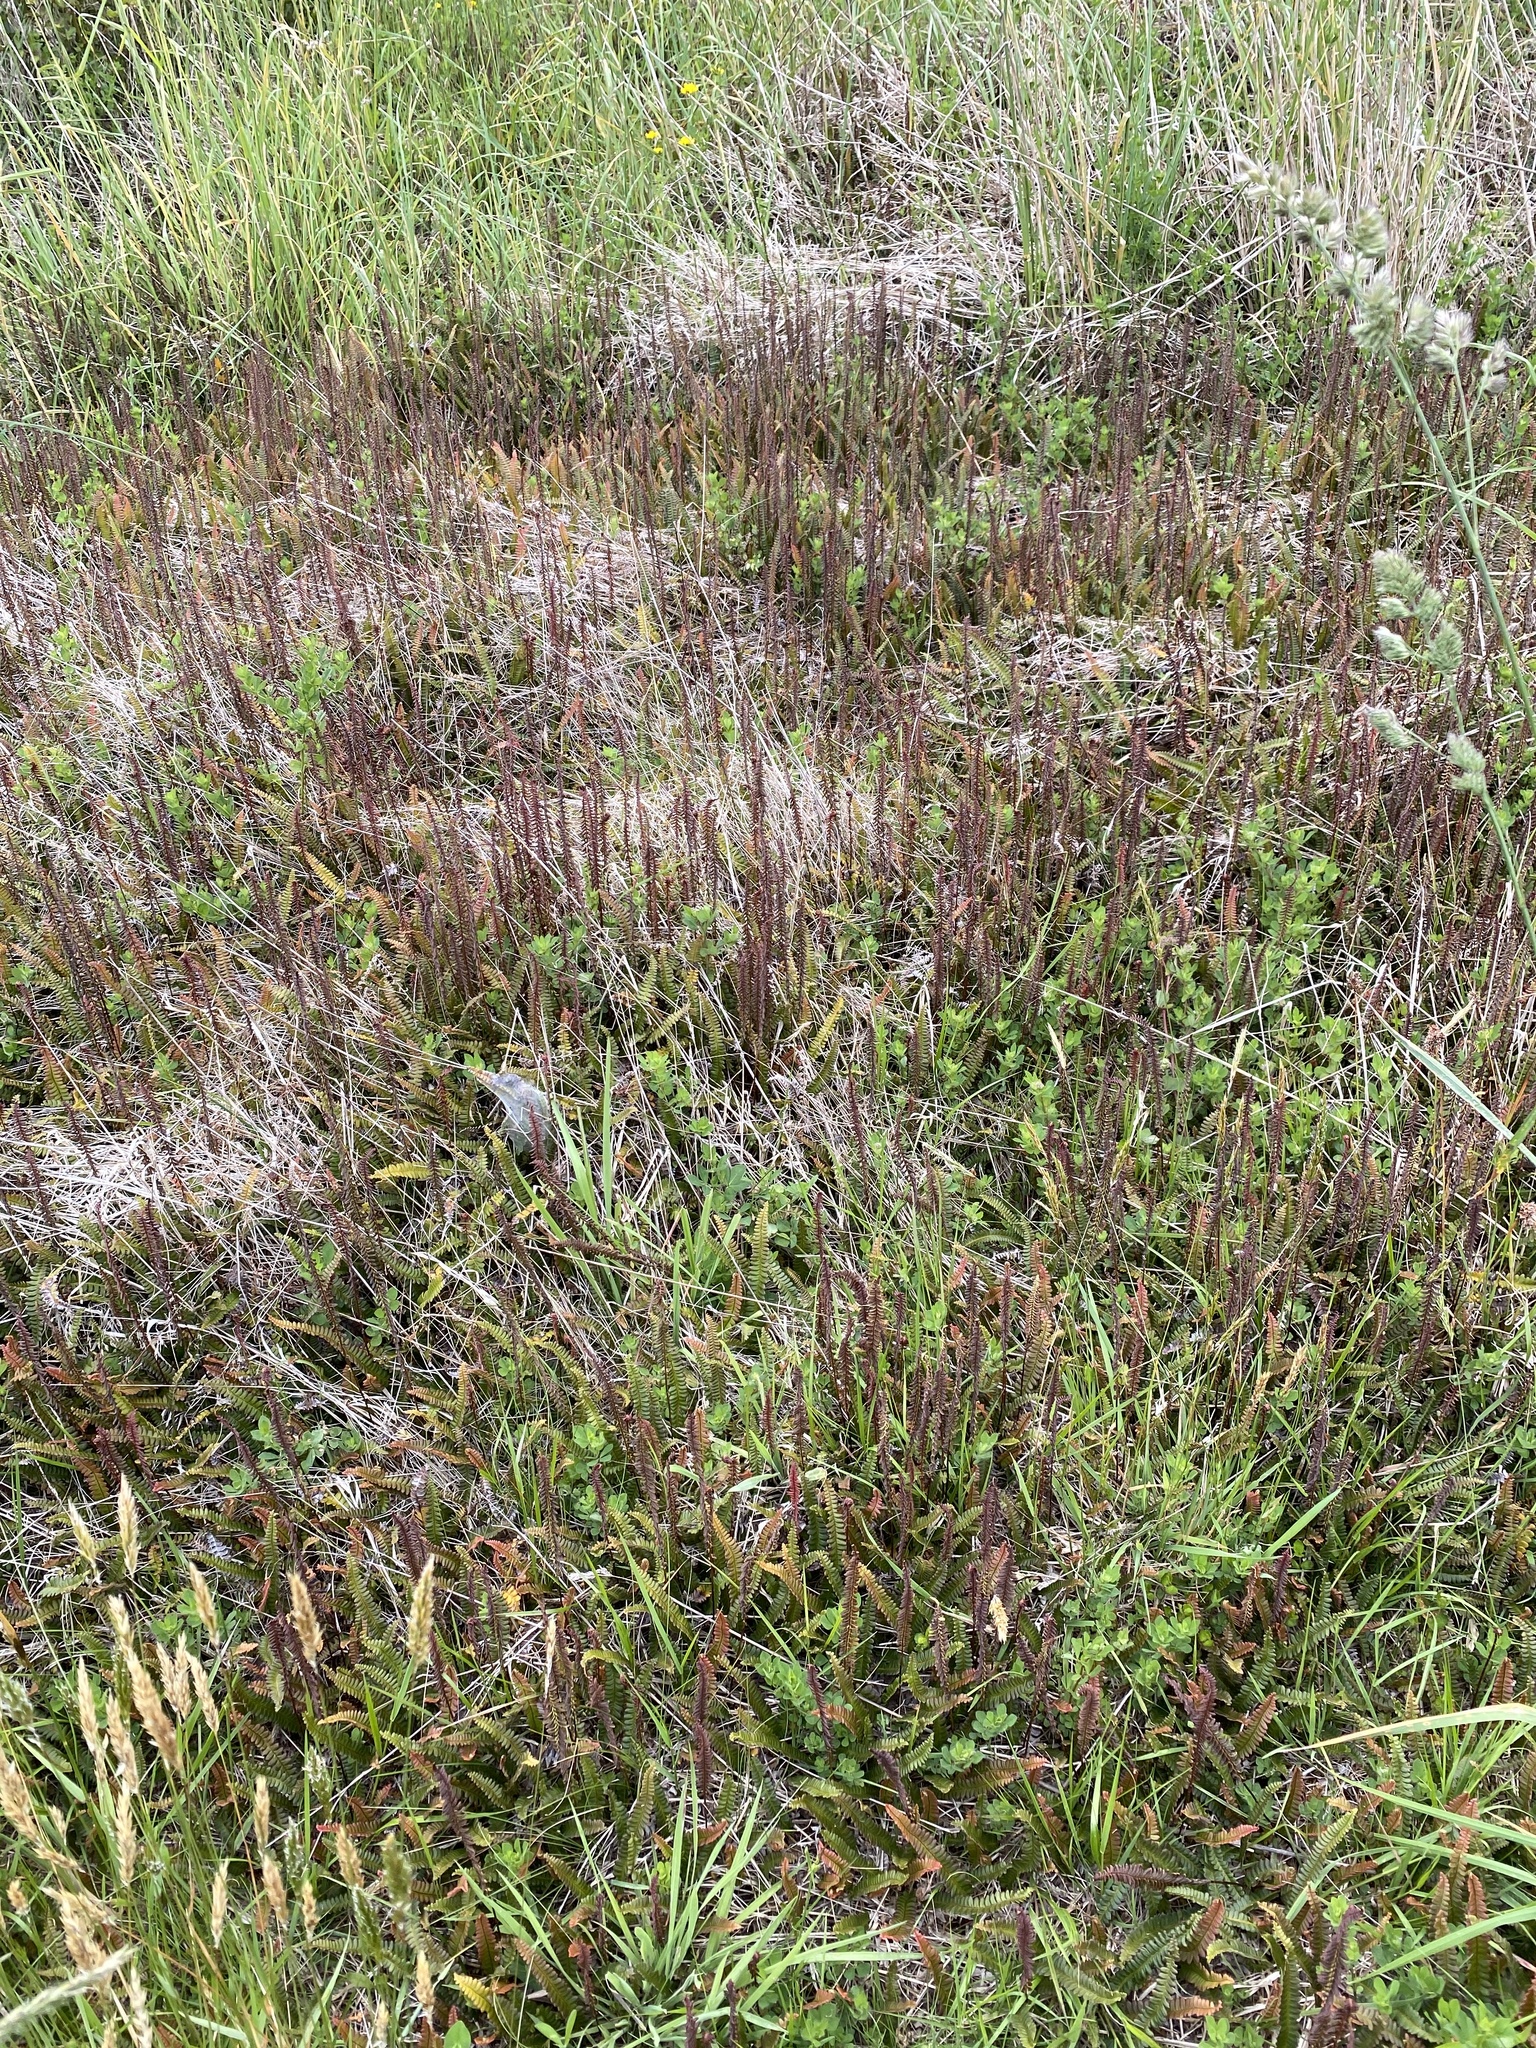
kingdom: Plantae
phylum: Tracheophyta
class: Polypodiopsida
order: Polypodiales
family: Blechnaceae
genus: Austroblechnum
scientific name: Austroblechnum penna-marina
